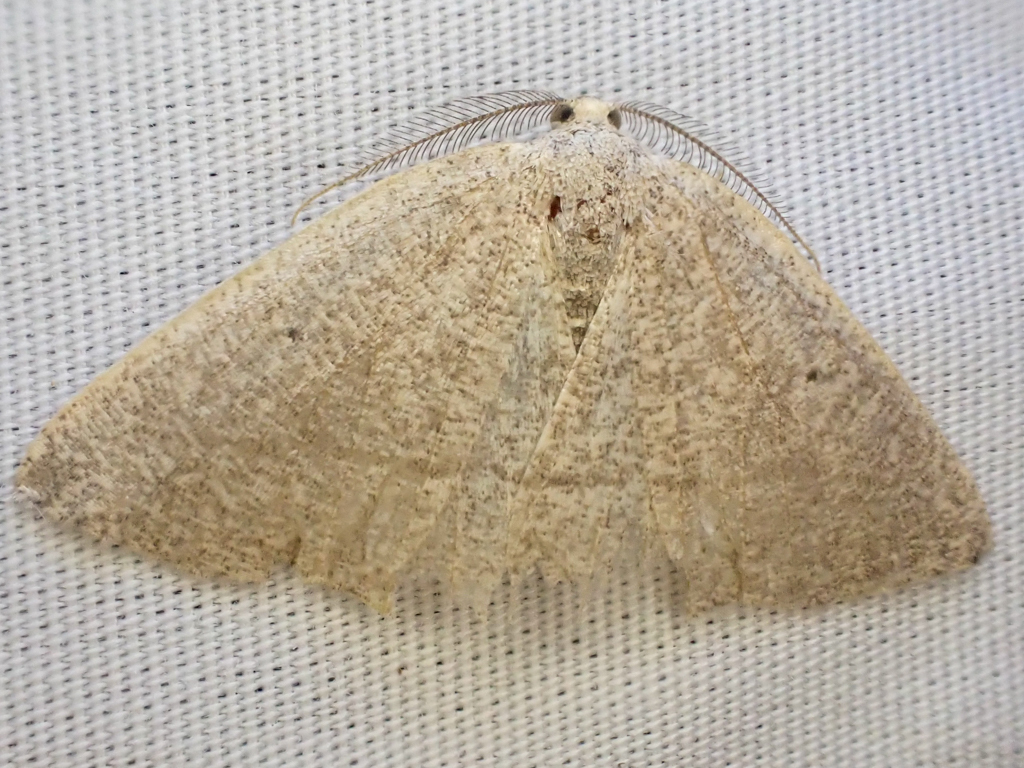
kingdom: Animalia
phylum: Arthropoda
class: Insecta
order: Lepidoptera
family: Geometridae
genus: Eudrepanulatrix
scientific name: Eudrepanulatrix rectifascia
